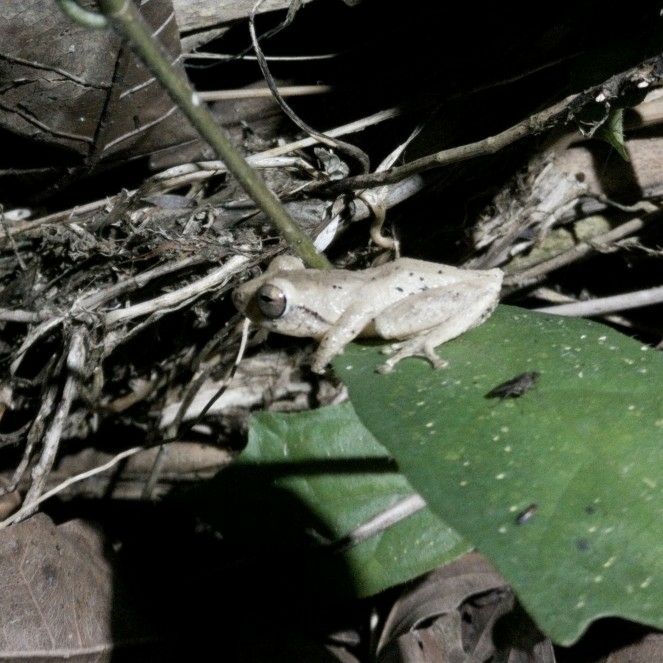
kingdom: Animalia
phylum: Chordata
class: Amphibia
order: Anura
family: Rhacophoridae
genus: Raorchestes
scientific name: Raorchestes anili
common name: Anil's bush frog
